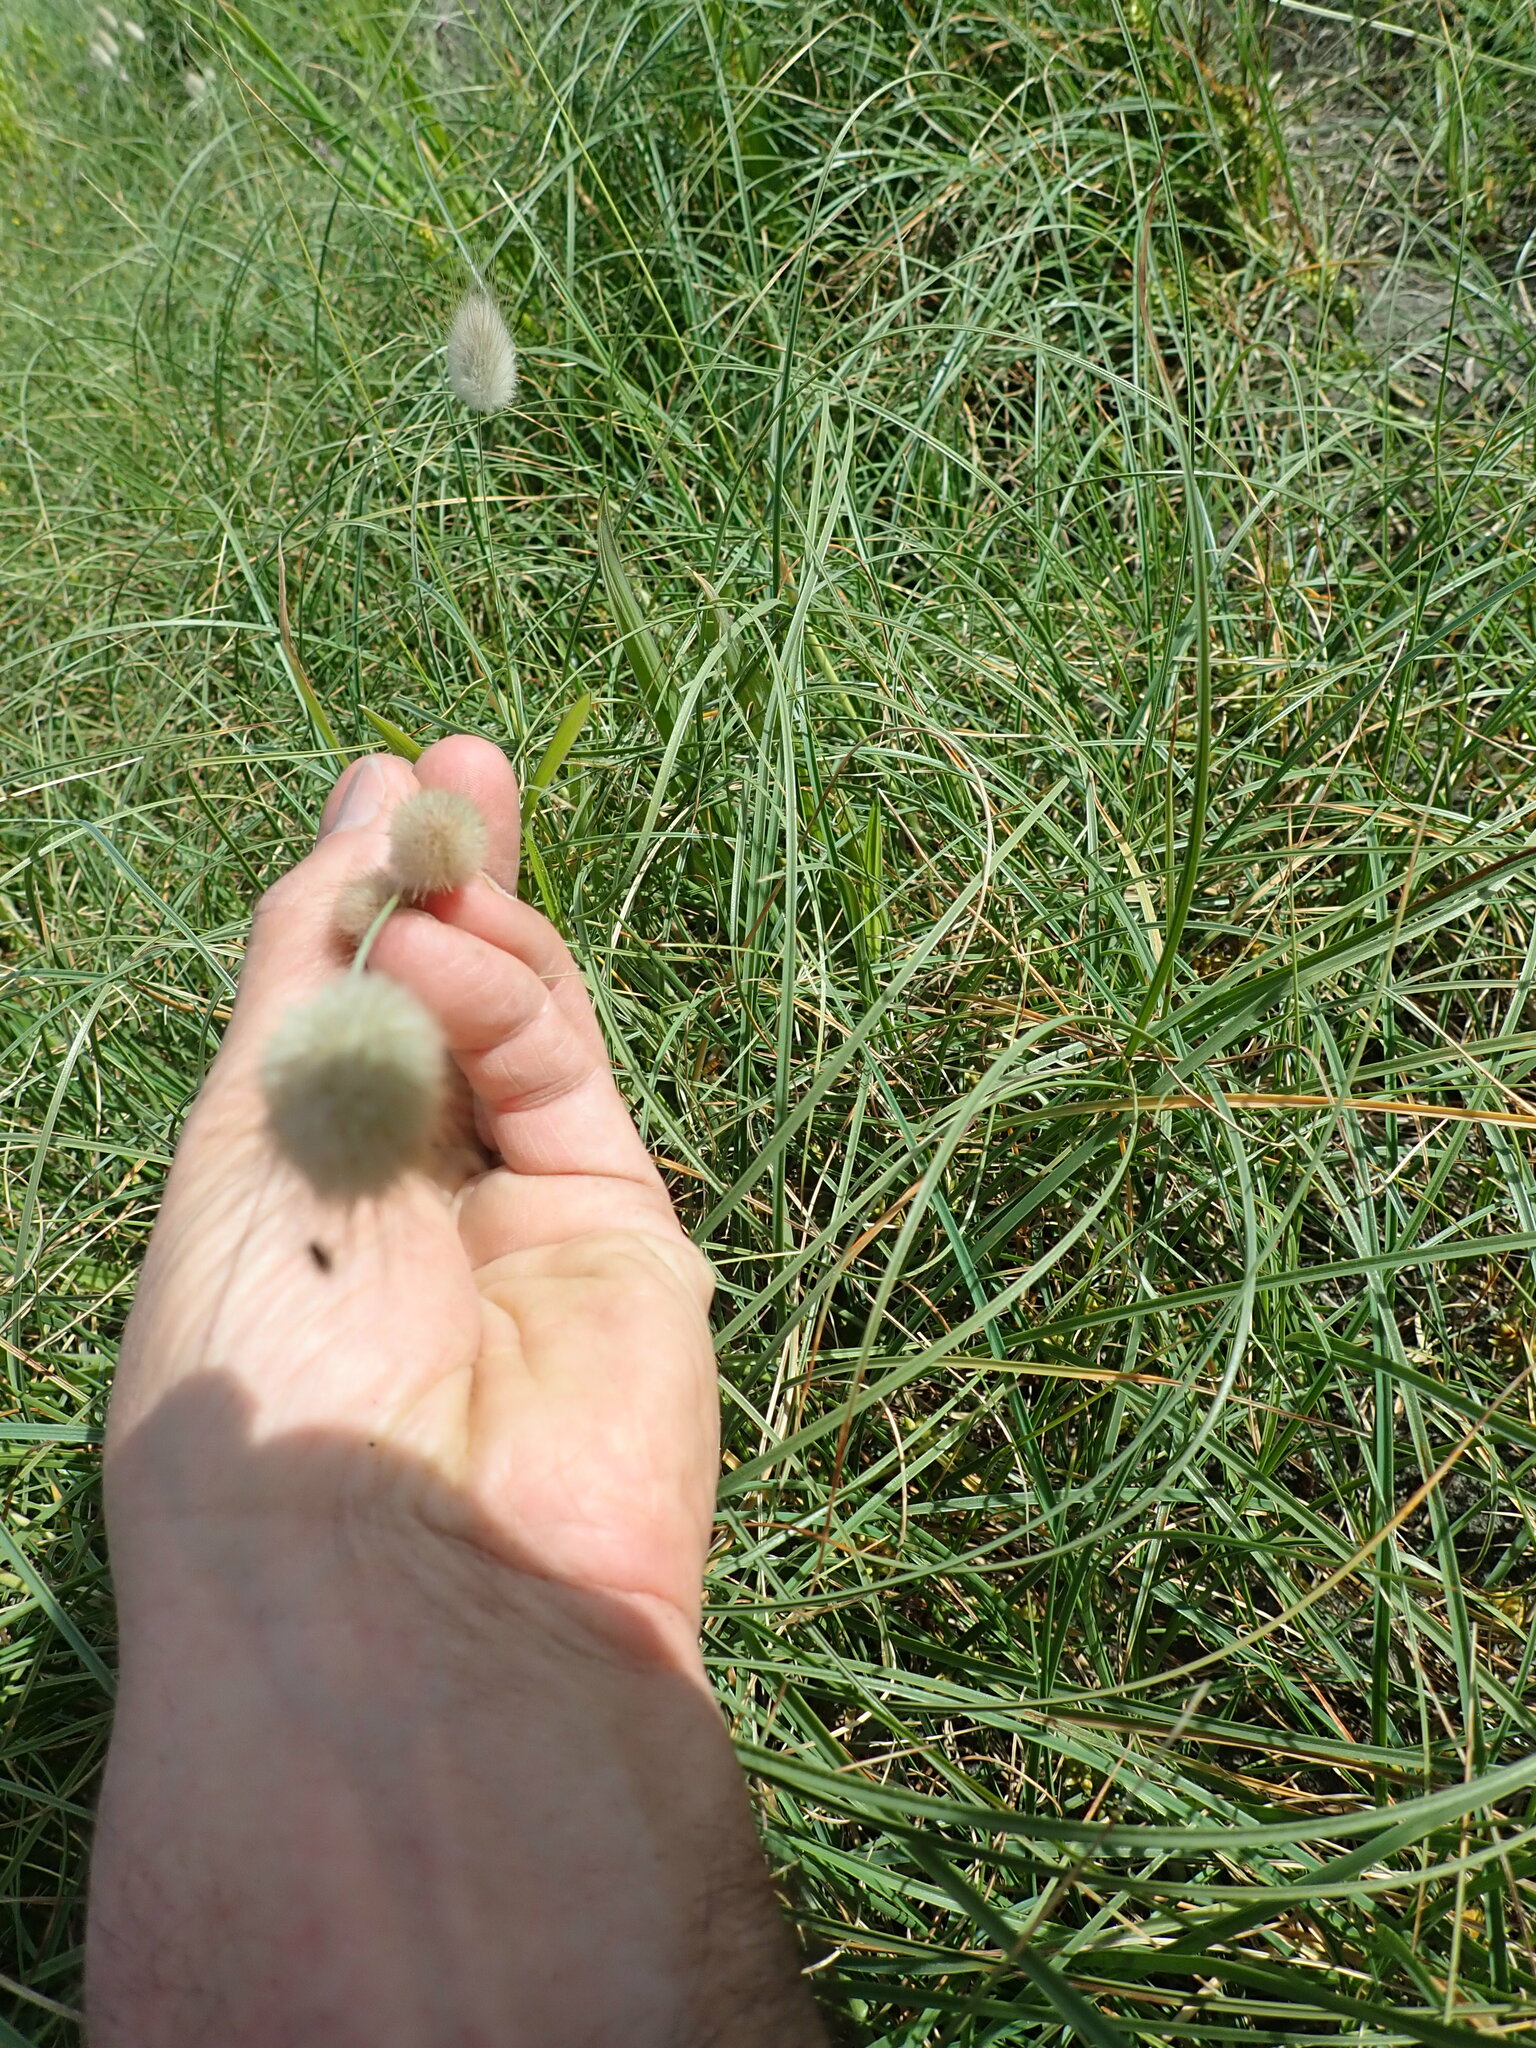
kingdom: Plantae
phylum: Tracheophyta
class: Liliopsida
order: Poales
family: Poaceae
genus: Lagurus
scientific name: Lagurus ovatus
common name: Hare's-tail
